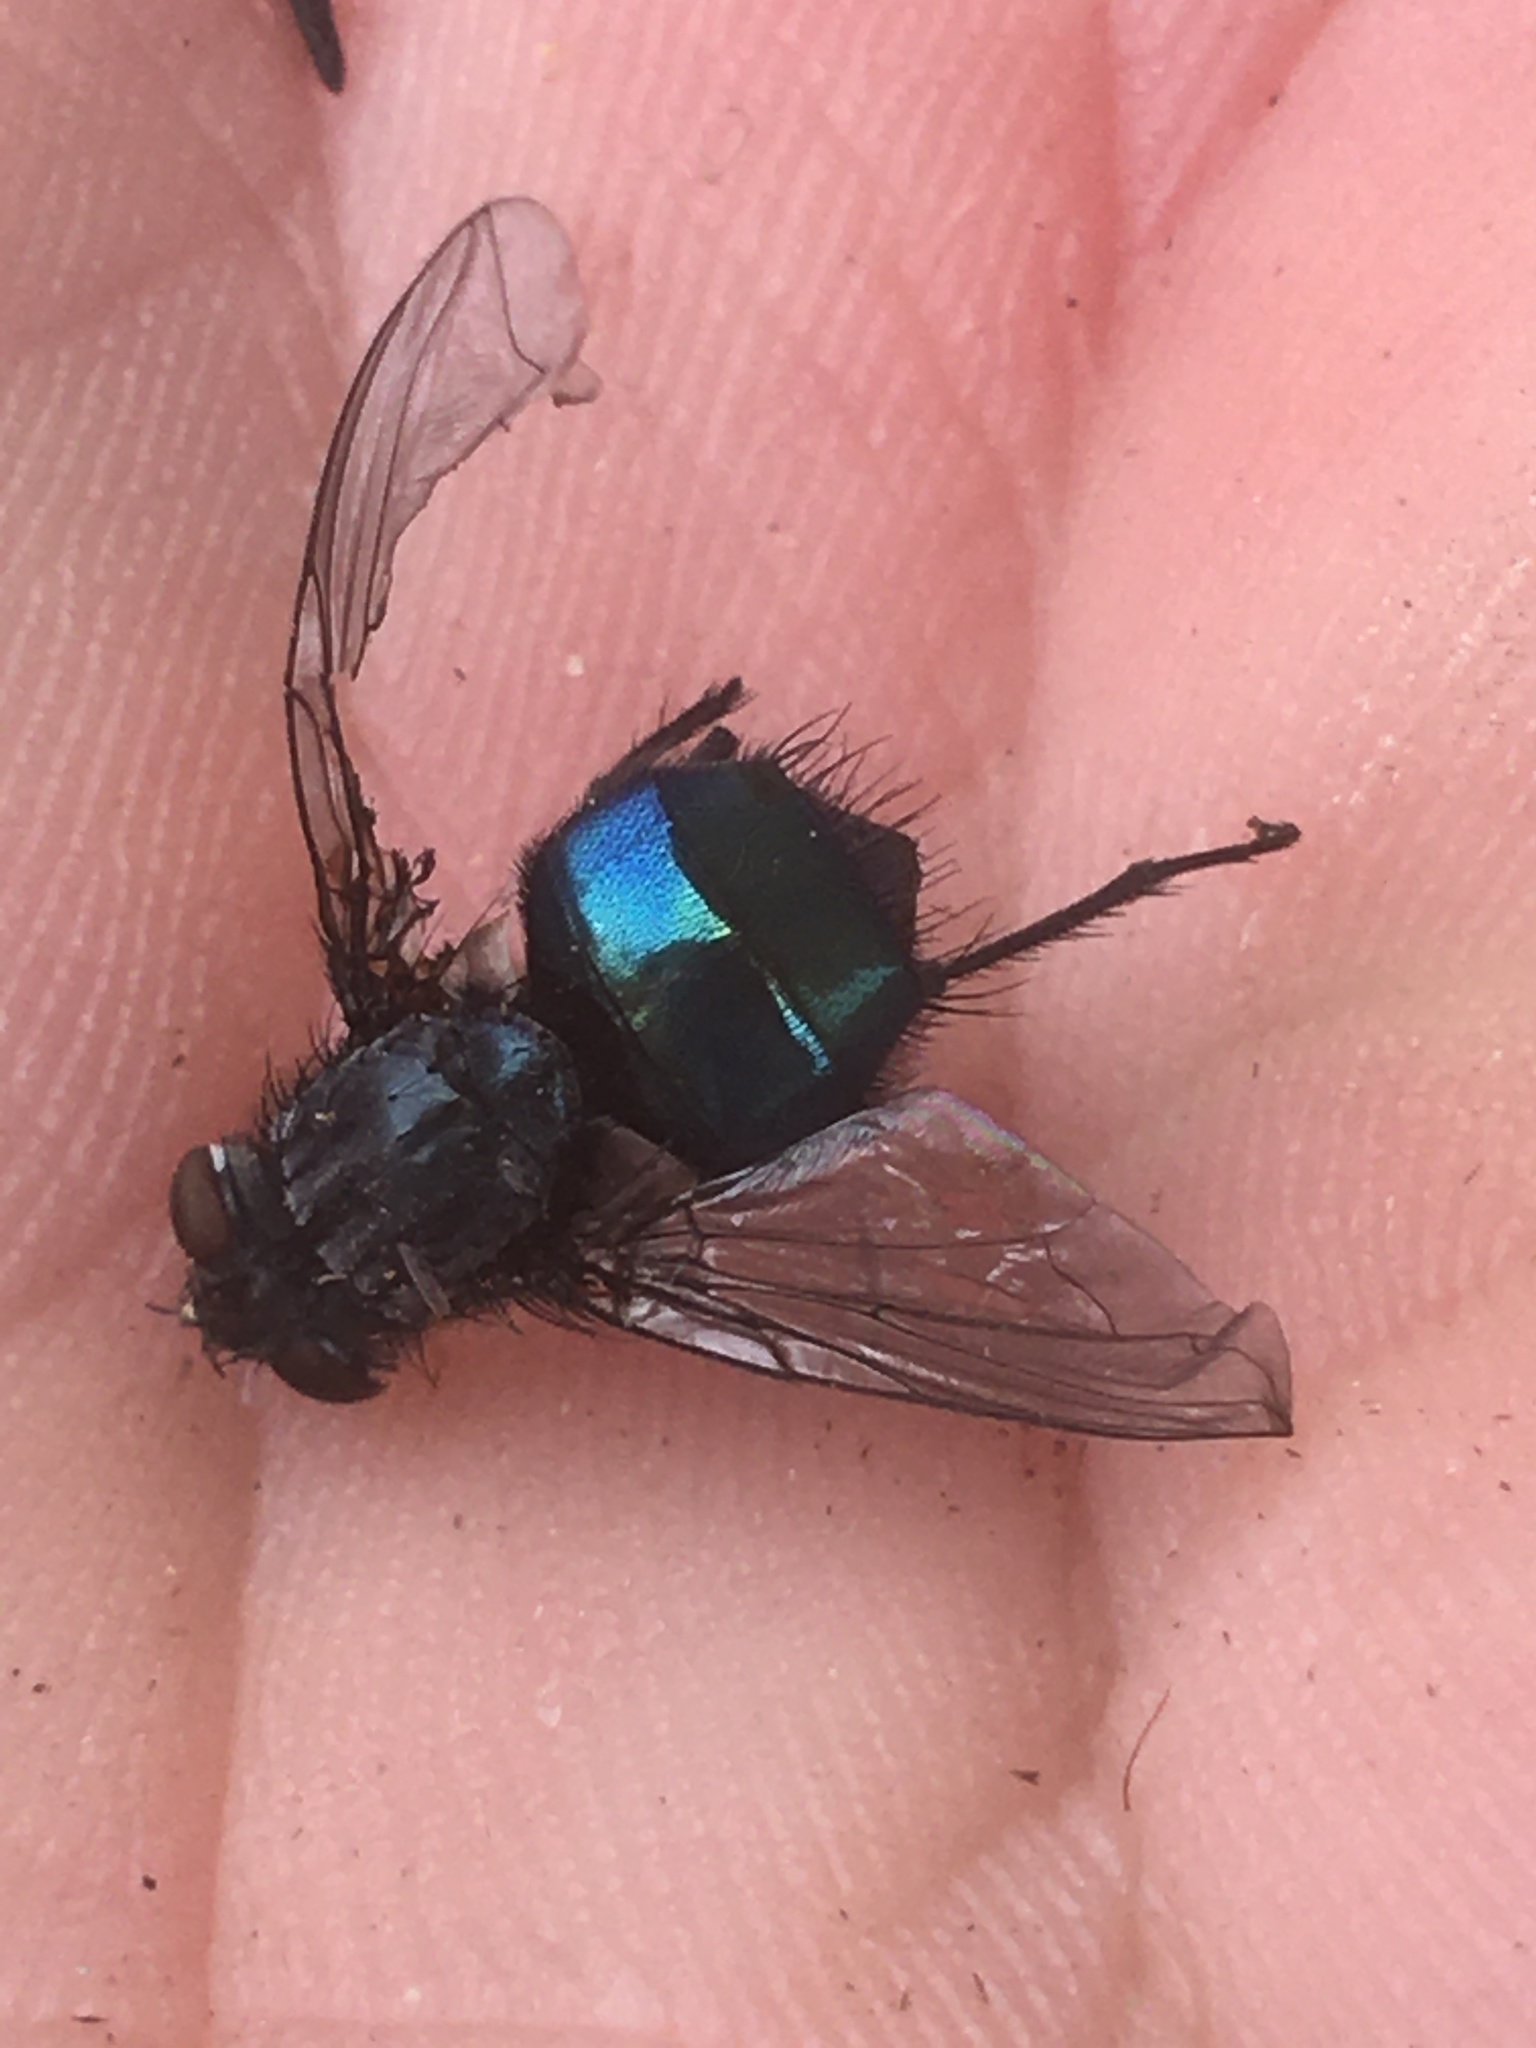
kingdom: Animalia
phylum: Arthropoda
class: Insecta
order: Diptera
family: Calliphoridae
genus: Cynomya
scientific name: Cynomya cadaverina
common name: Shiny blue bottle fly
